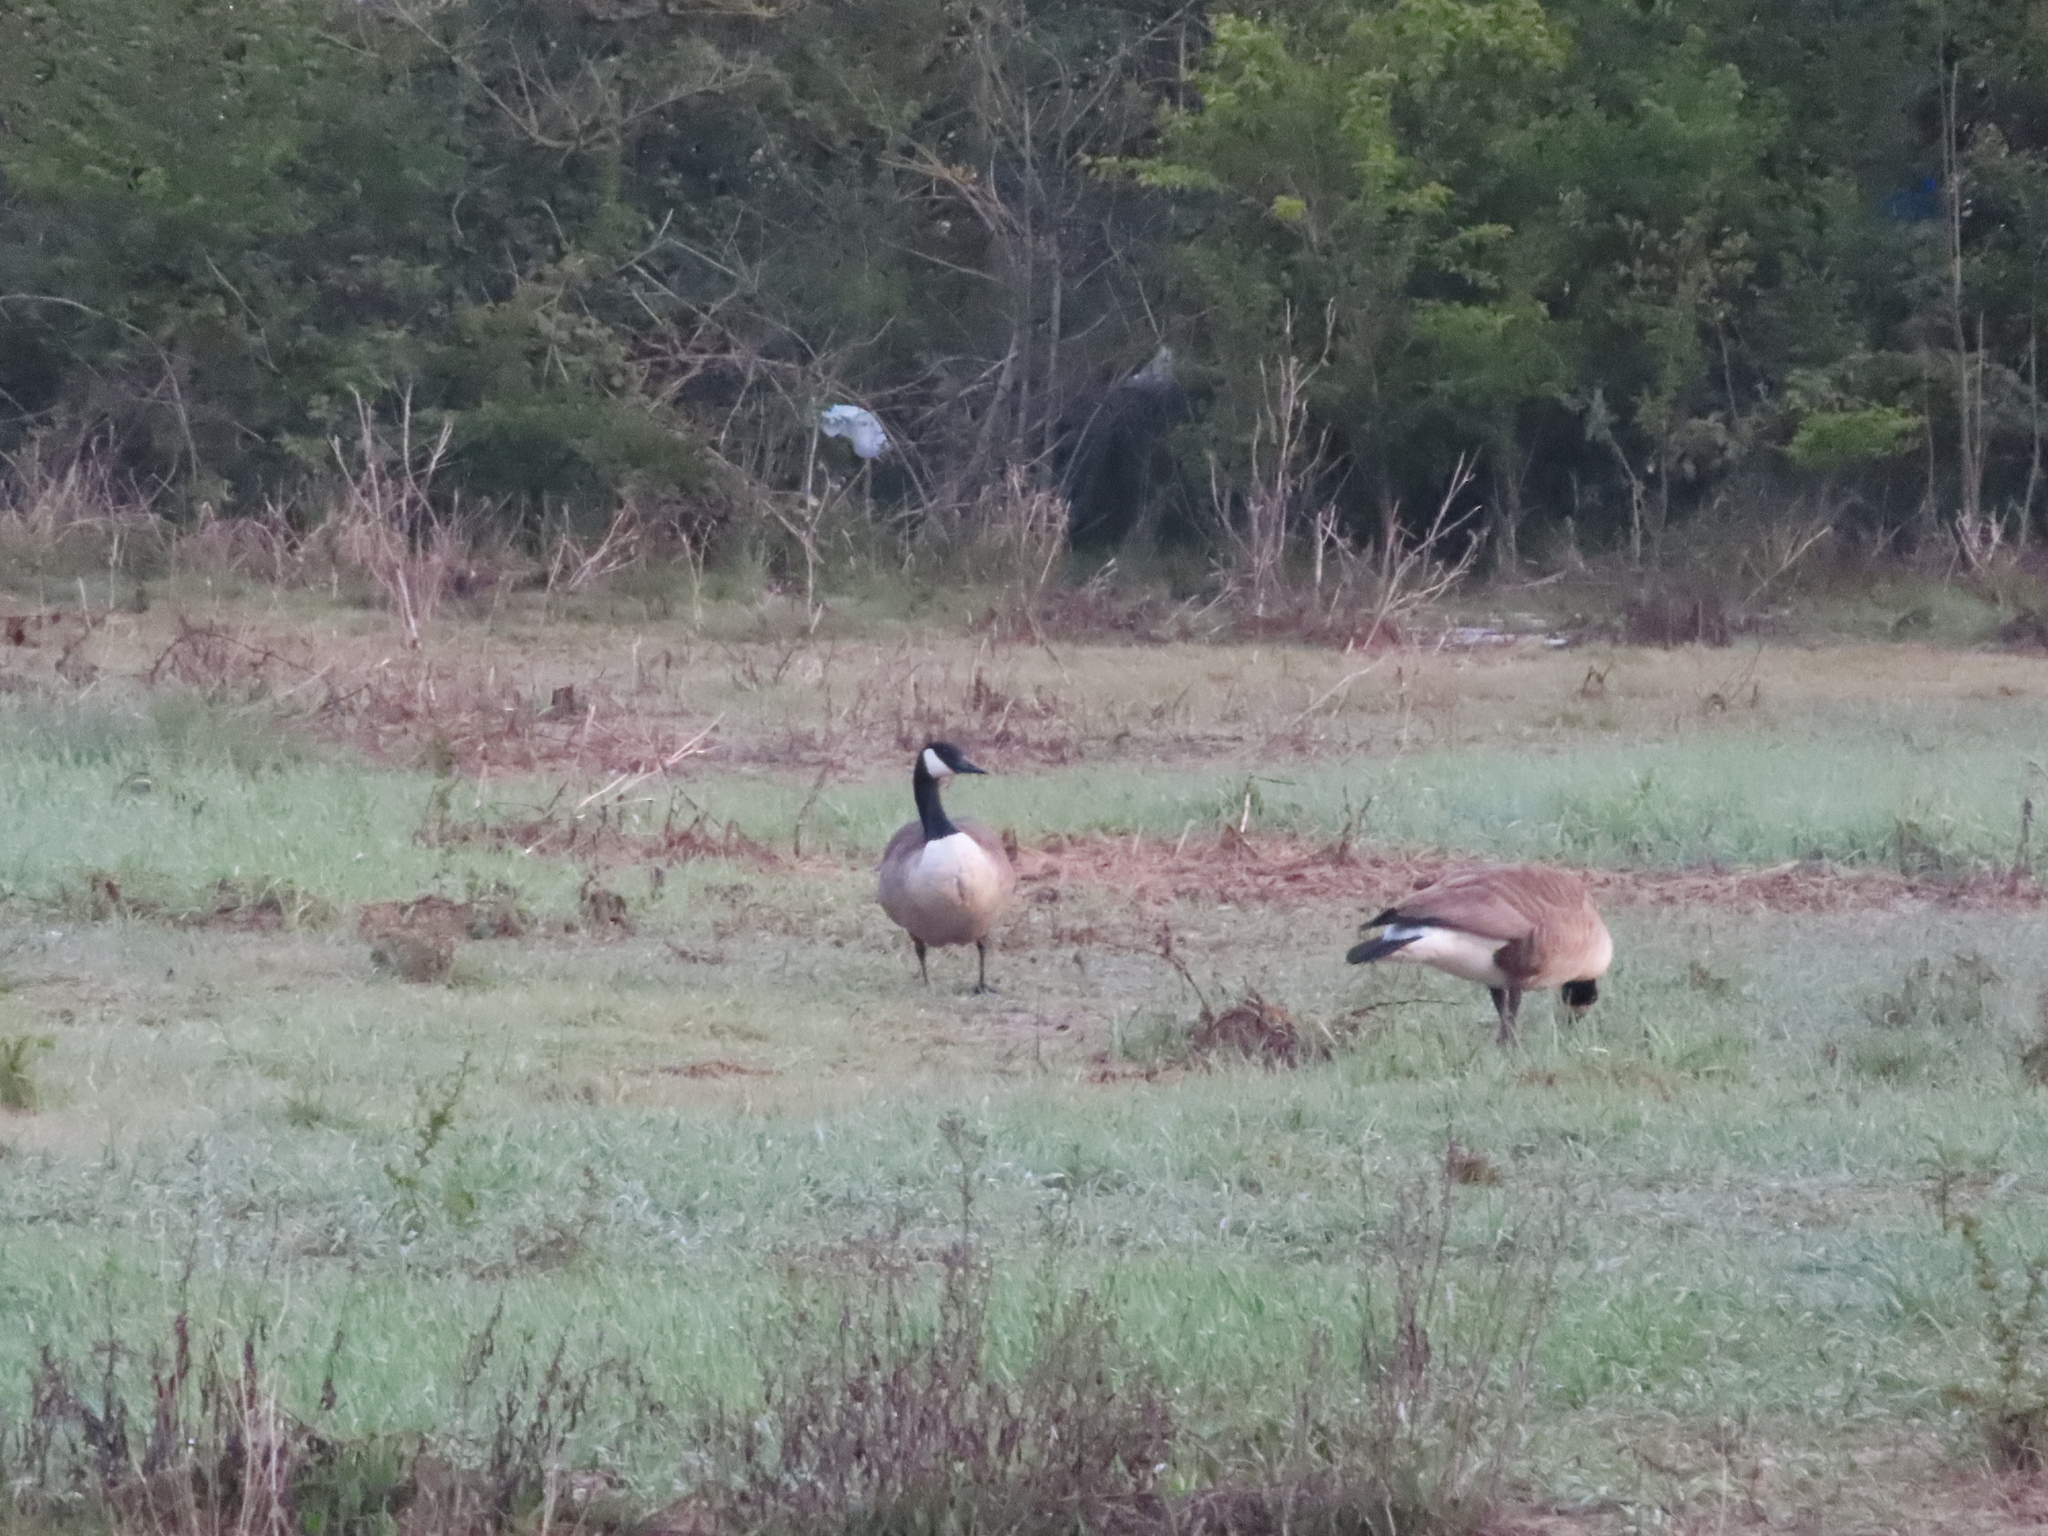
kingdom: Animalia
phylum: Chordata
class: Aves
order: Anseriformes
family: Anatidae
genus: Branta
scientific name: Branta canadensis
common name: Canada goose
